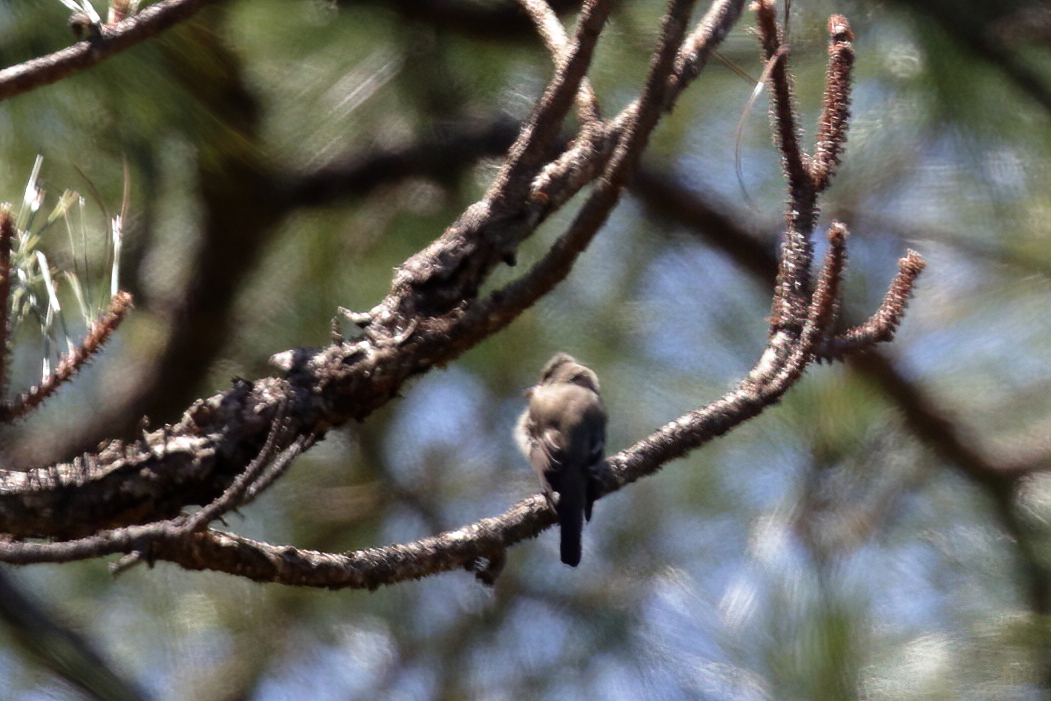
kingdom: Animalia
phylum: Chordata
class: Aves
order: Passeriformes
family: Tyrannidae
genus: Contopus
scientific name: Contopus virens
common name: Eastern wood-pewee
